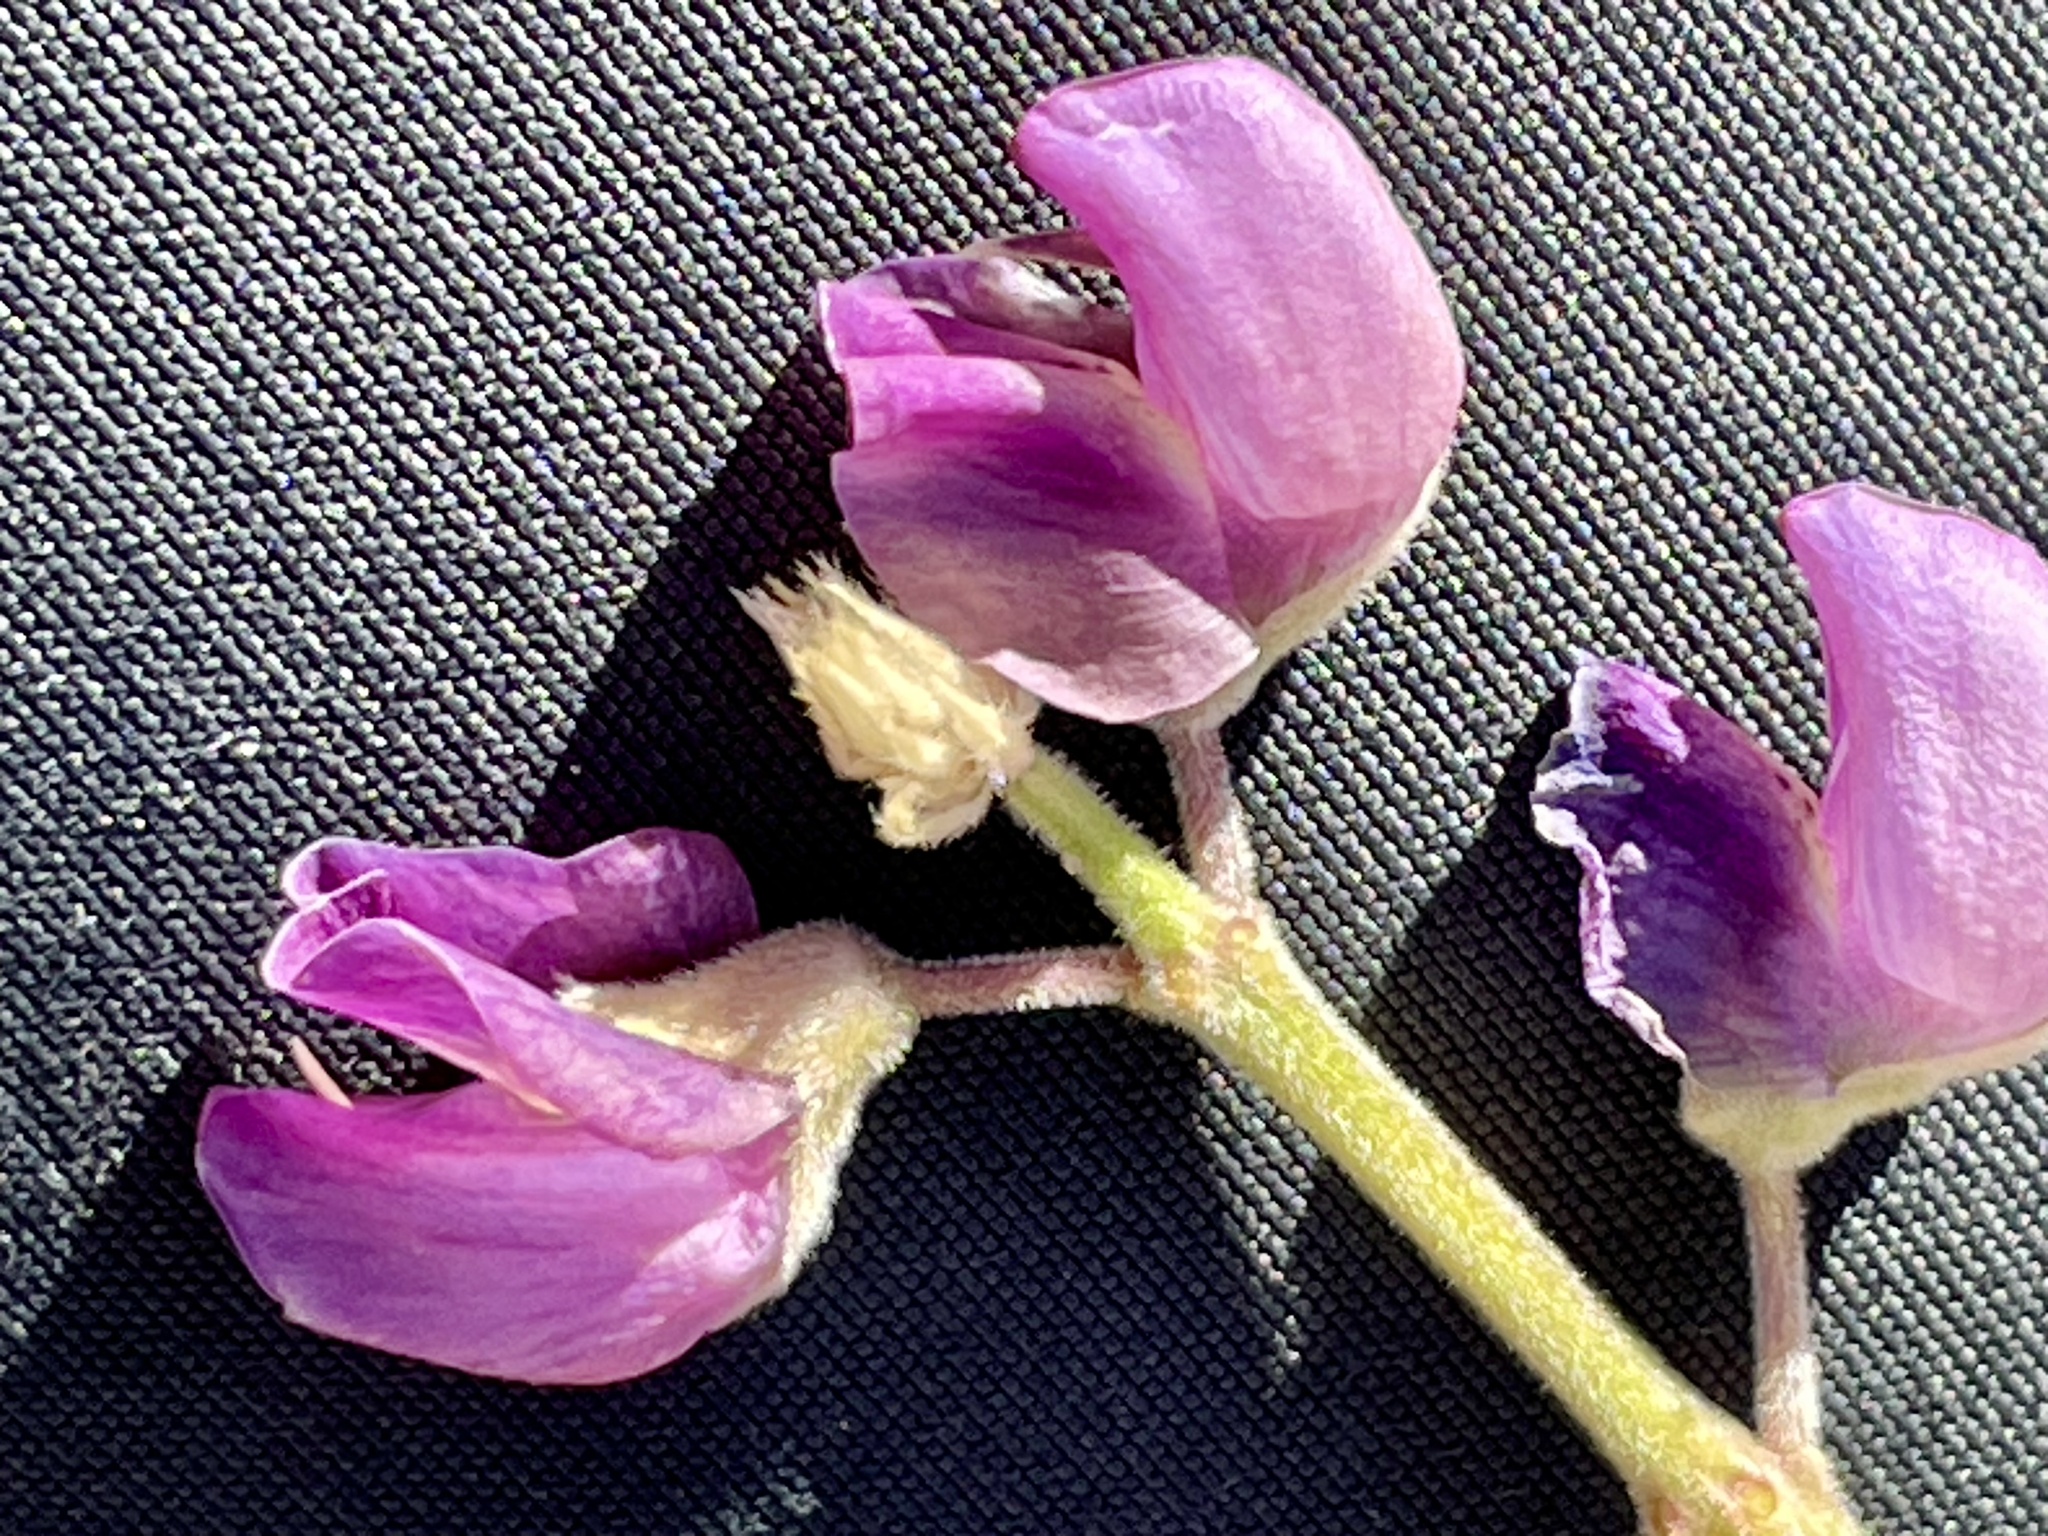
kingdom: Plantae
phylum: Tracheophyta
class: Magnoliopsida
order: Fabales
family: Fabaceae
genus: Lupinus
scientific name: Lupinus formosus
